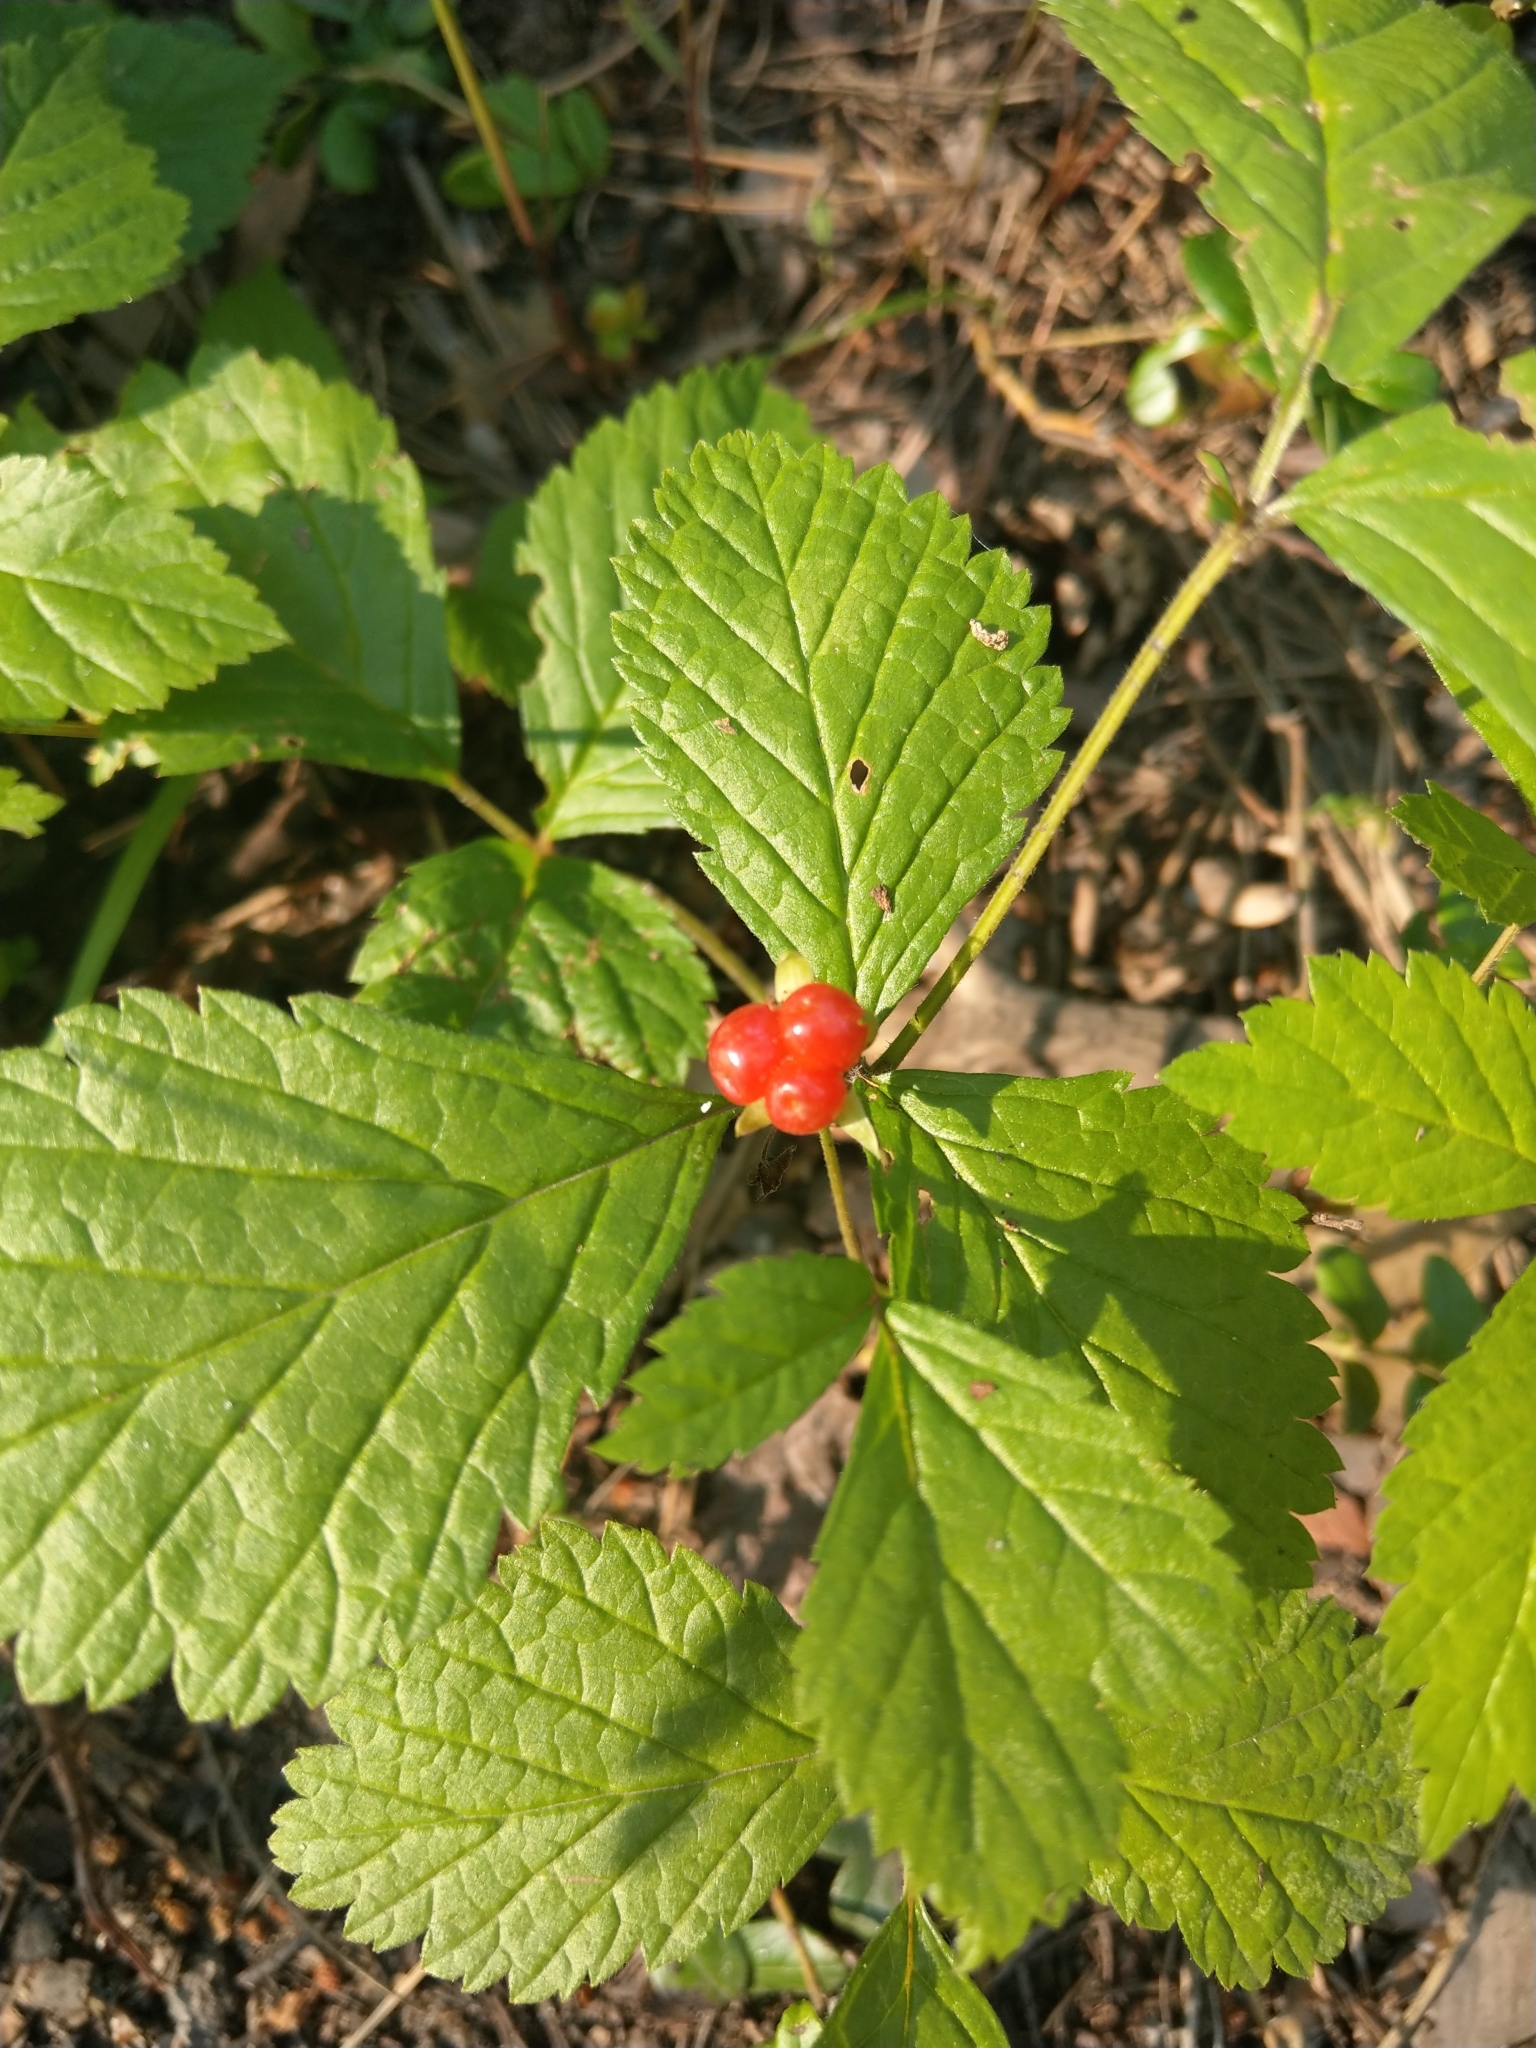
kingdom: Plantae
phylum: Tracheophyta
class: Magnoliopsida
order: Rosales
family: Rosaceae
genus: Rubus
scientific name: Rubus saxatilis
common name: Stone bramble
